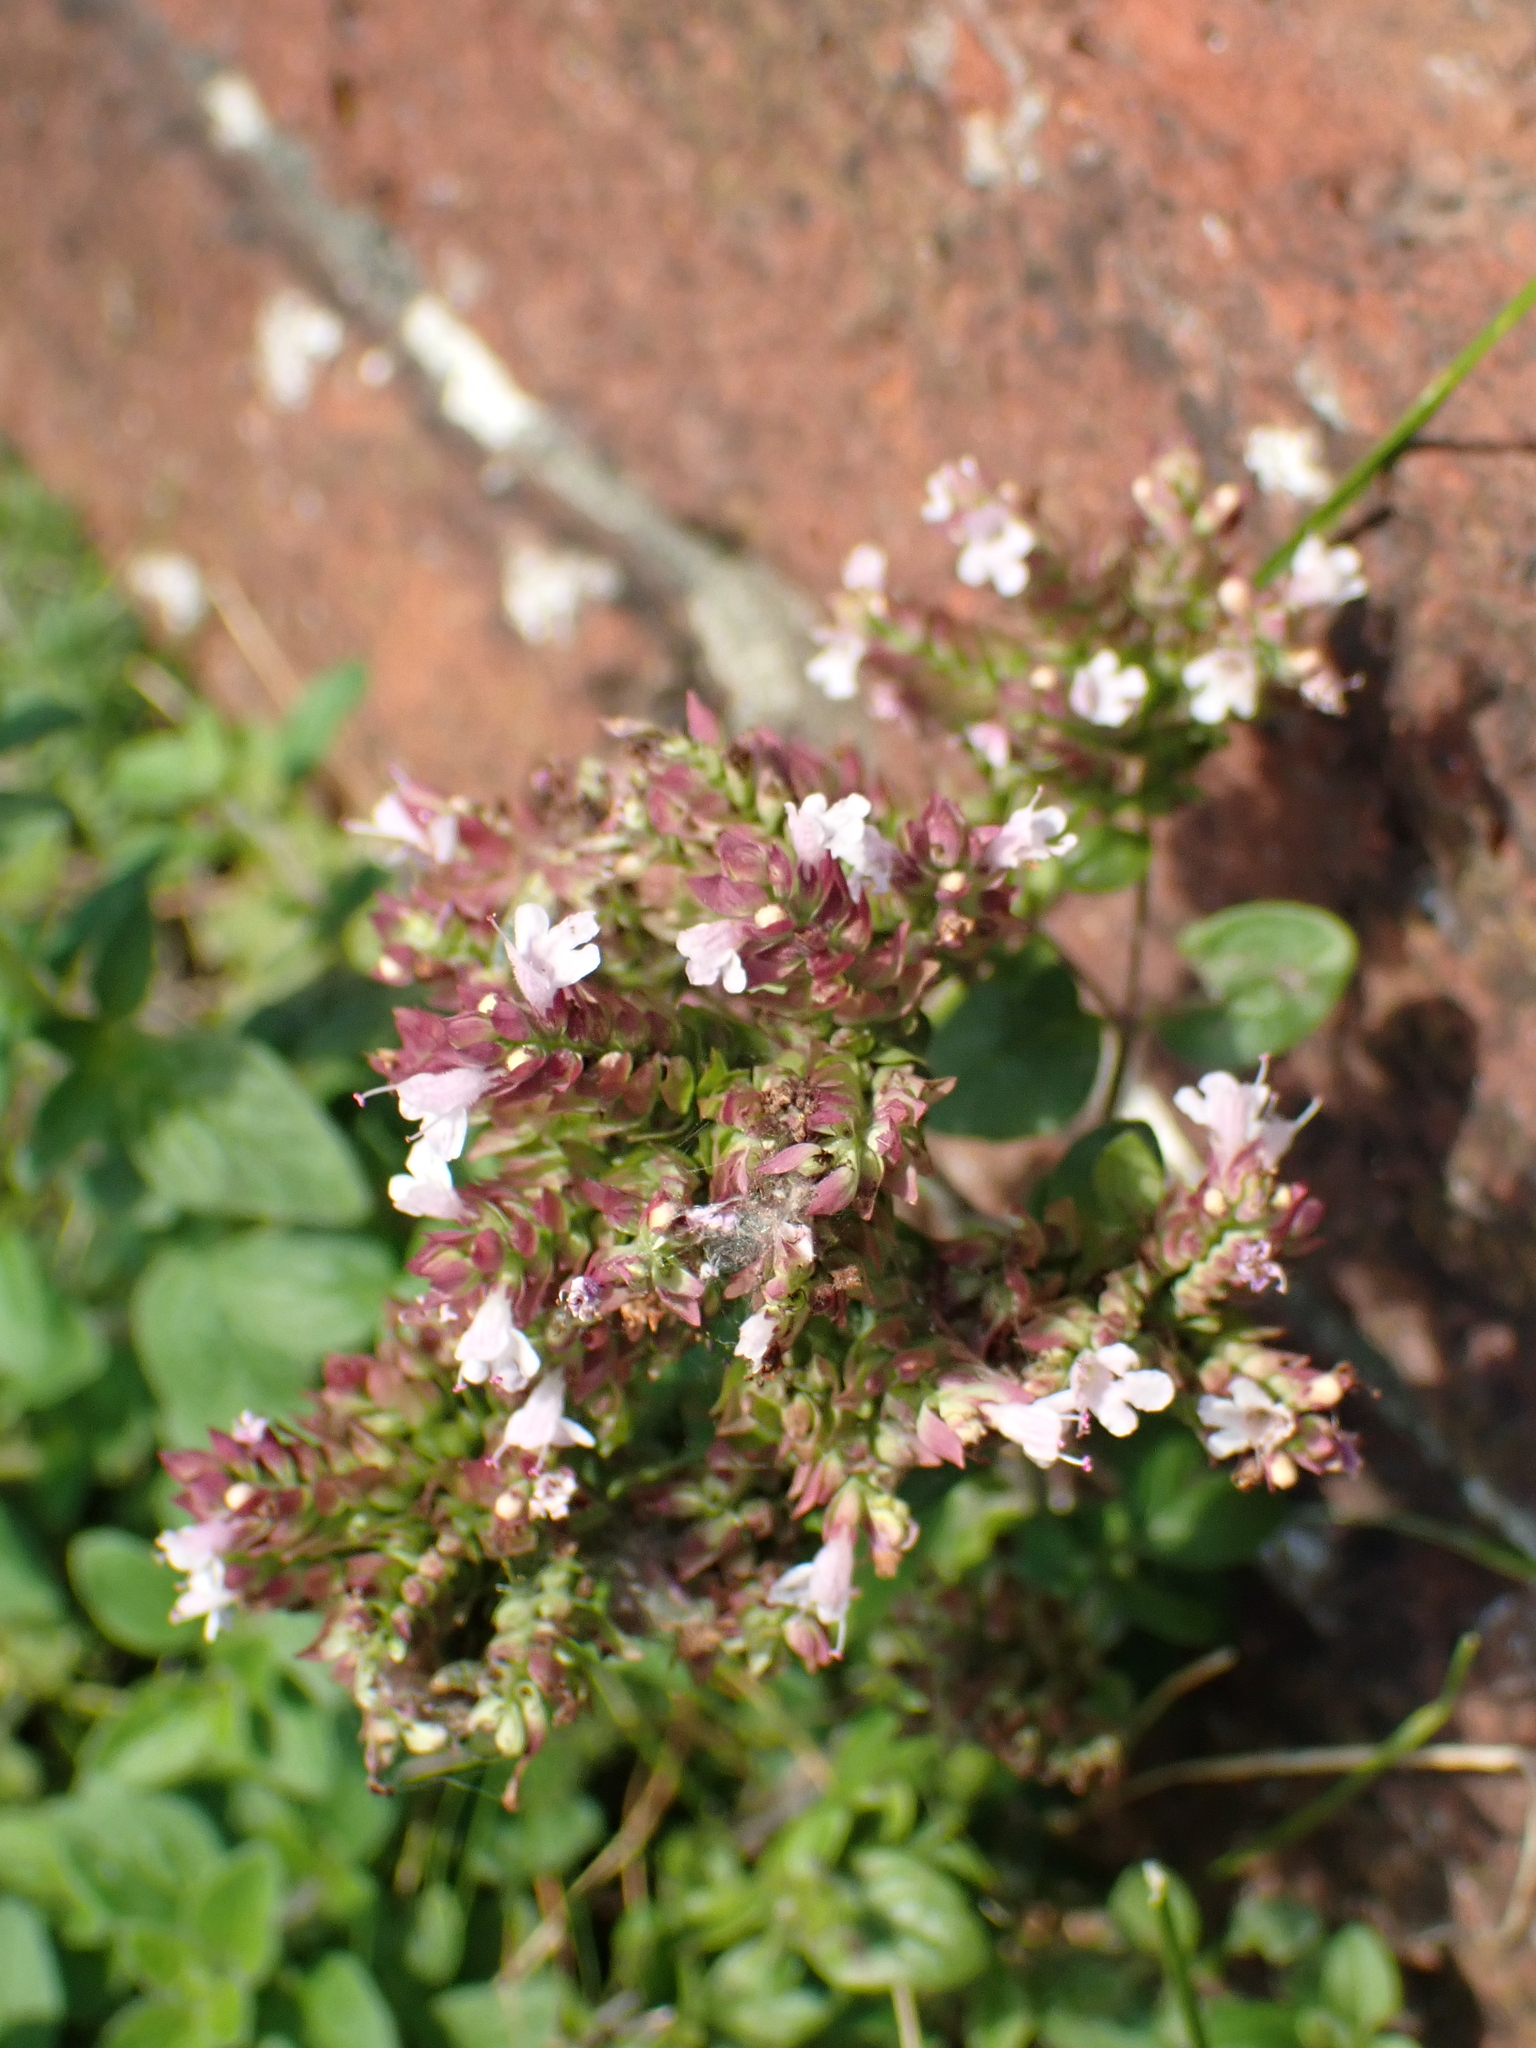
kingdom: Plantae
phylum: Tracheophyta
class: Magnoliopsida
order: Lamiales
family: Lamiaceae
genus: Origanum
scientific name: Origanum vulgare
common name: Wild marjoram
